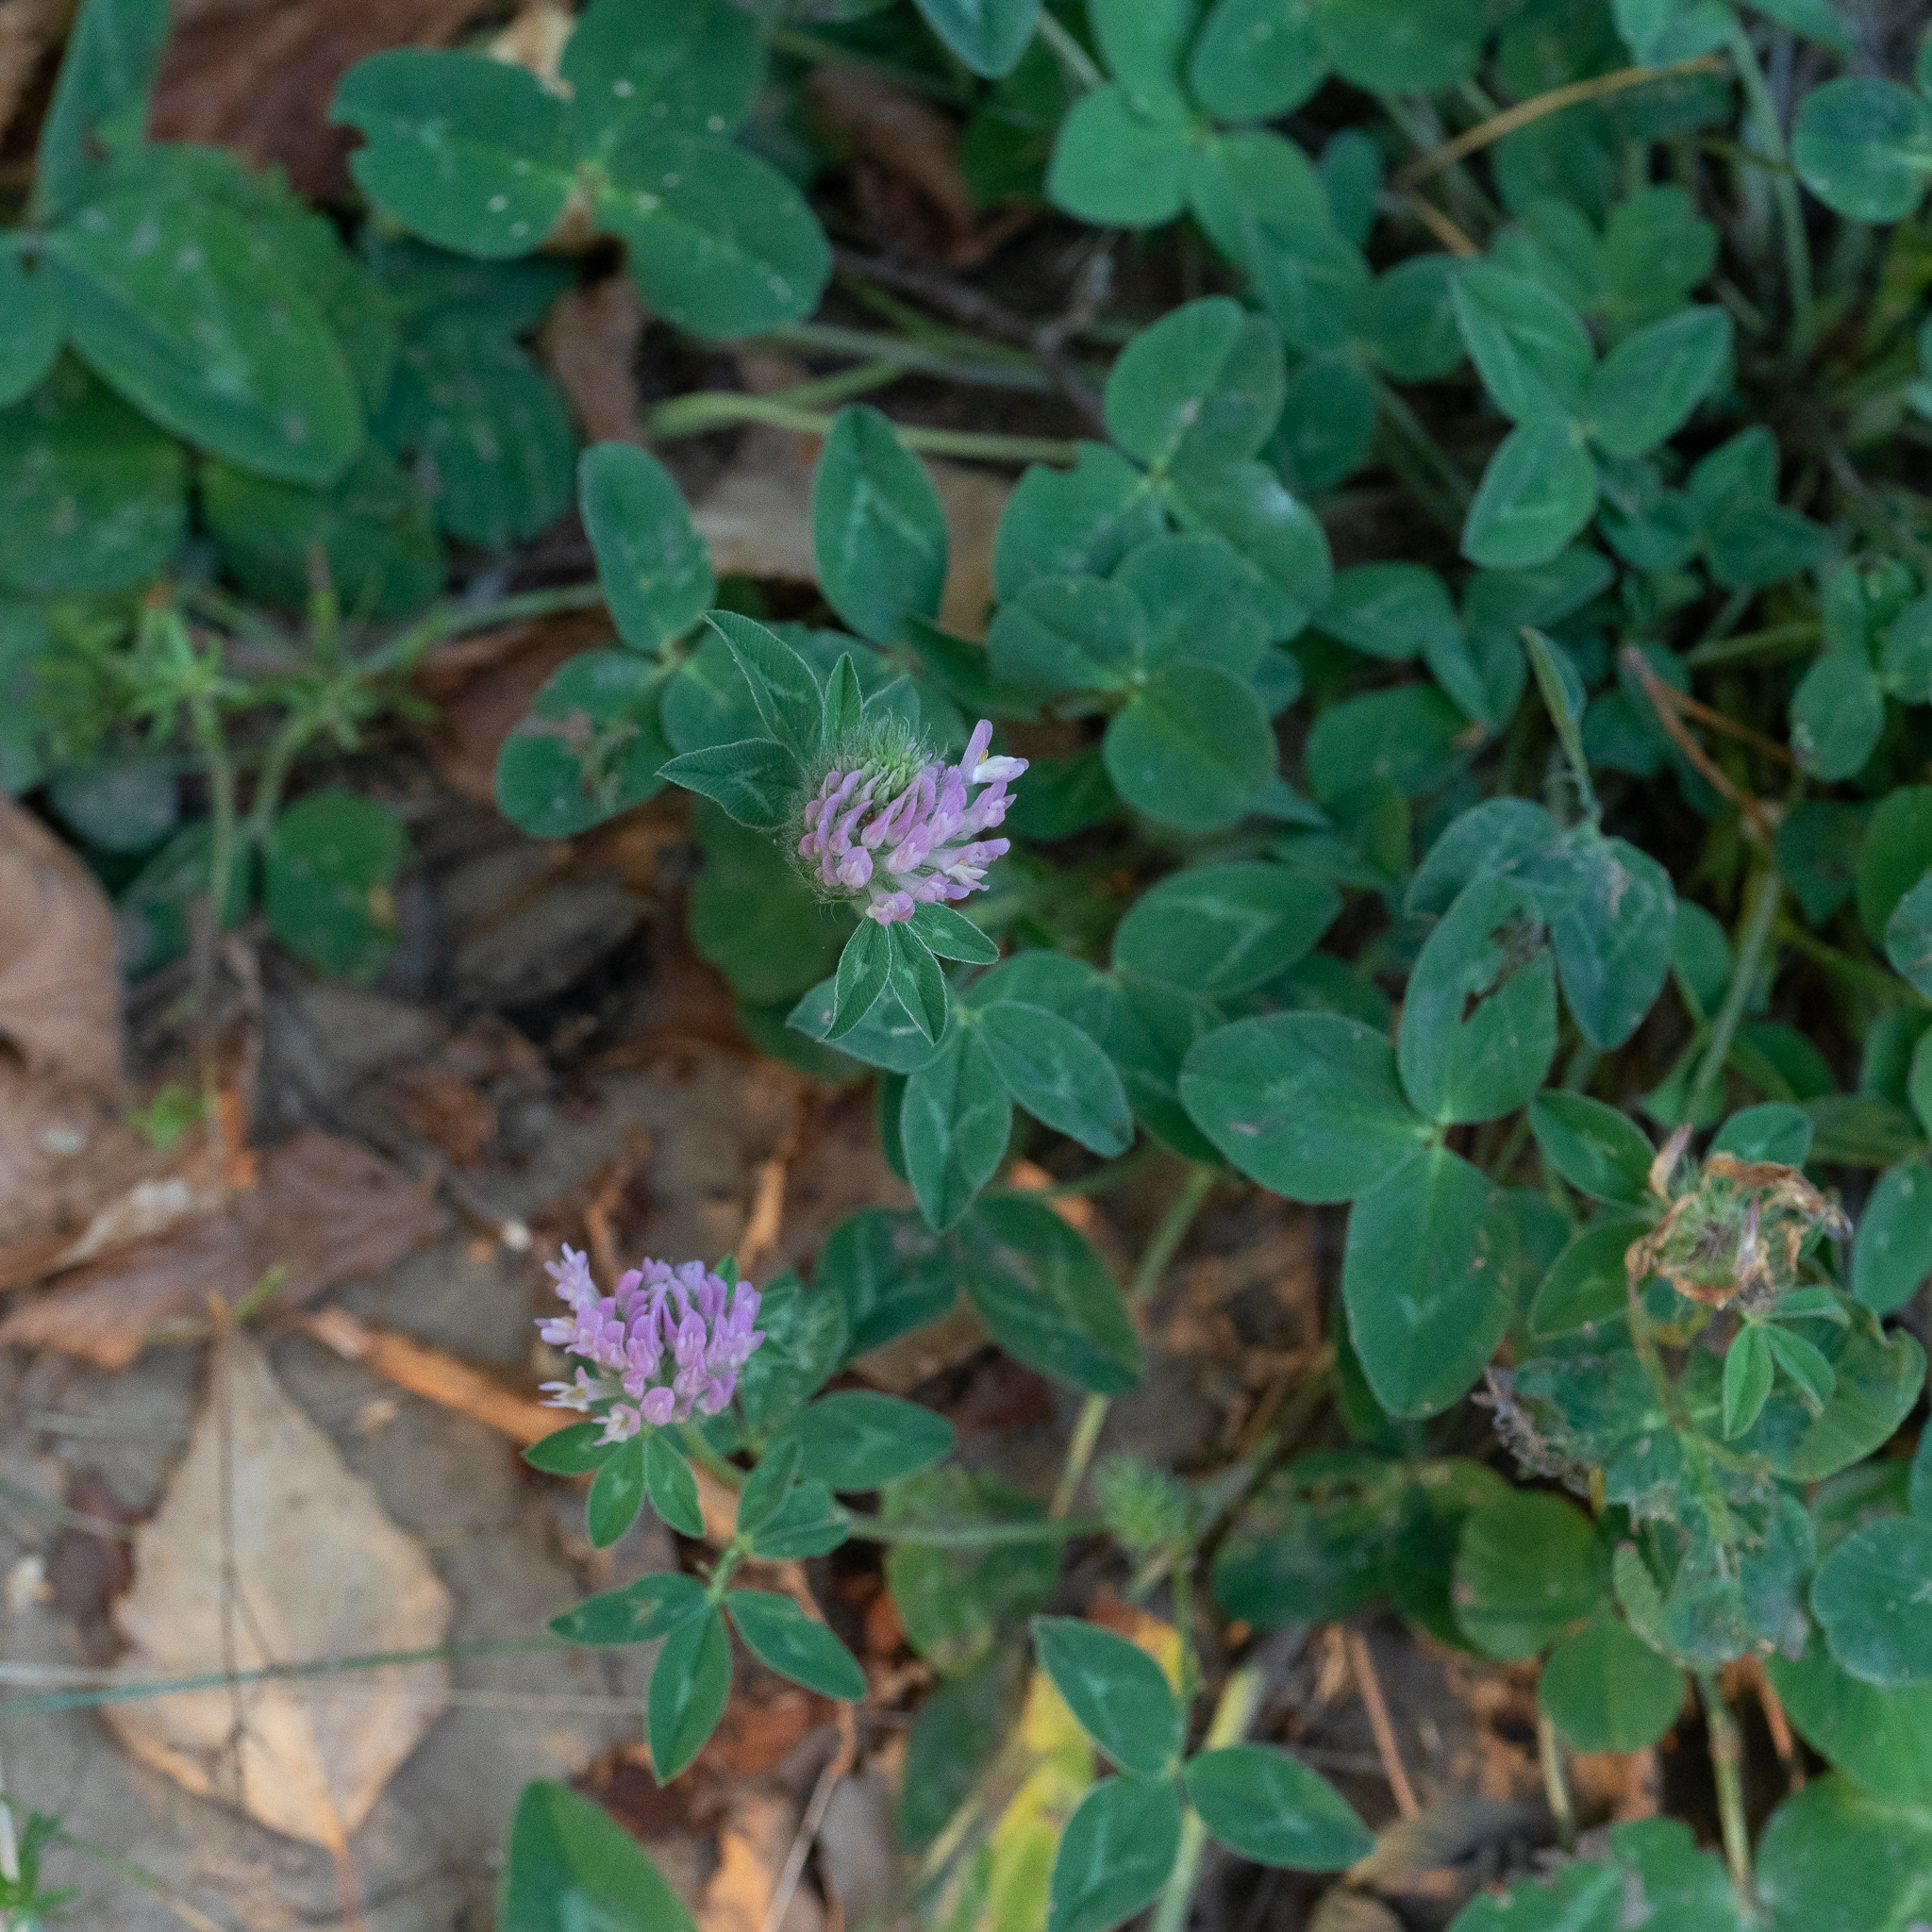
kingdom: Plantae
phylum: Tracheophyta
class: Magnoliopsida
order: Fabales
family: Fabaceae
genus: Trifolium
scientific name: Trifolium pratense
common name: Red clover
